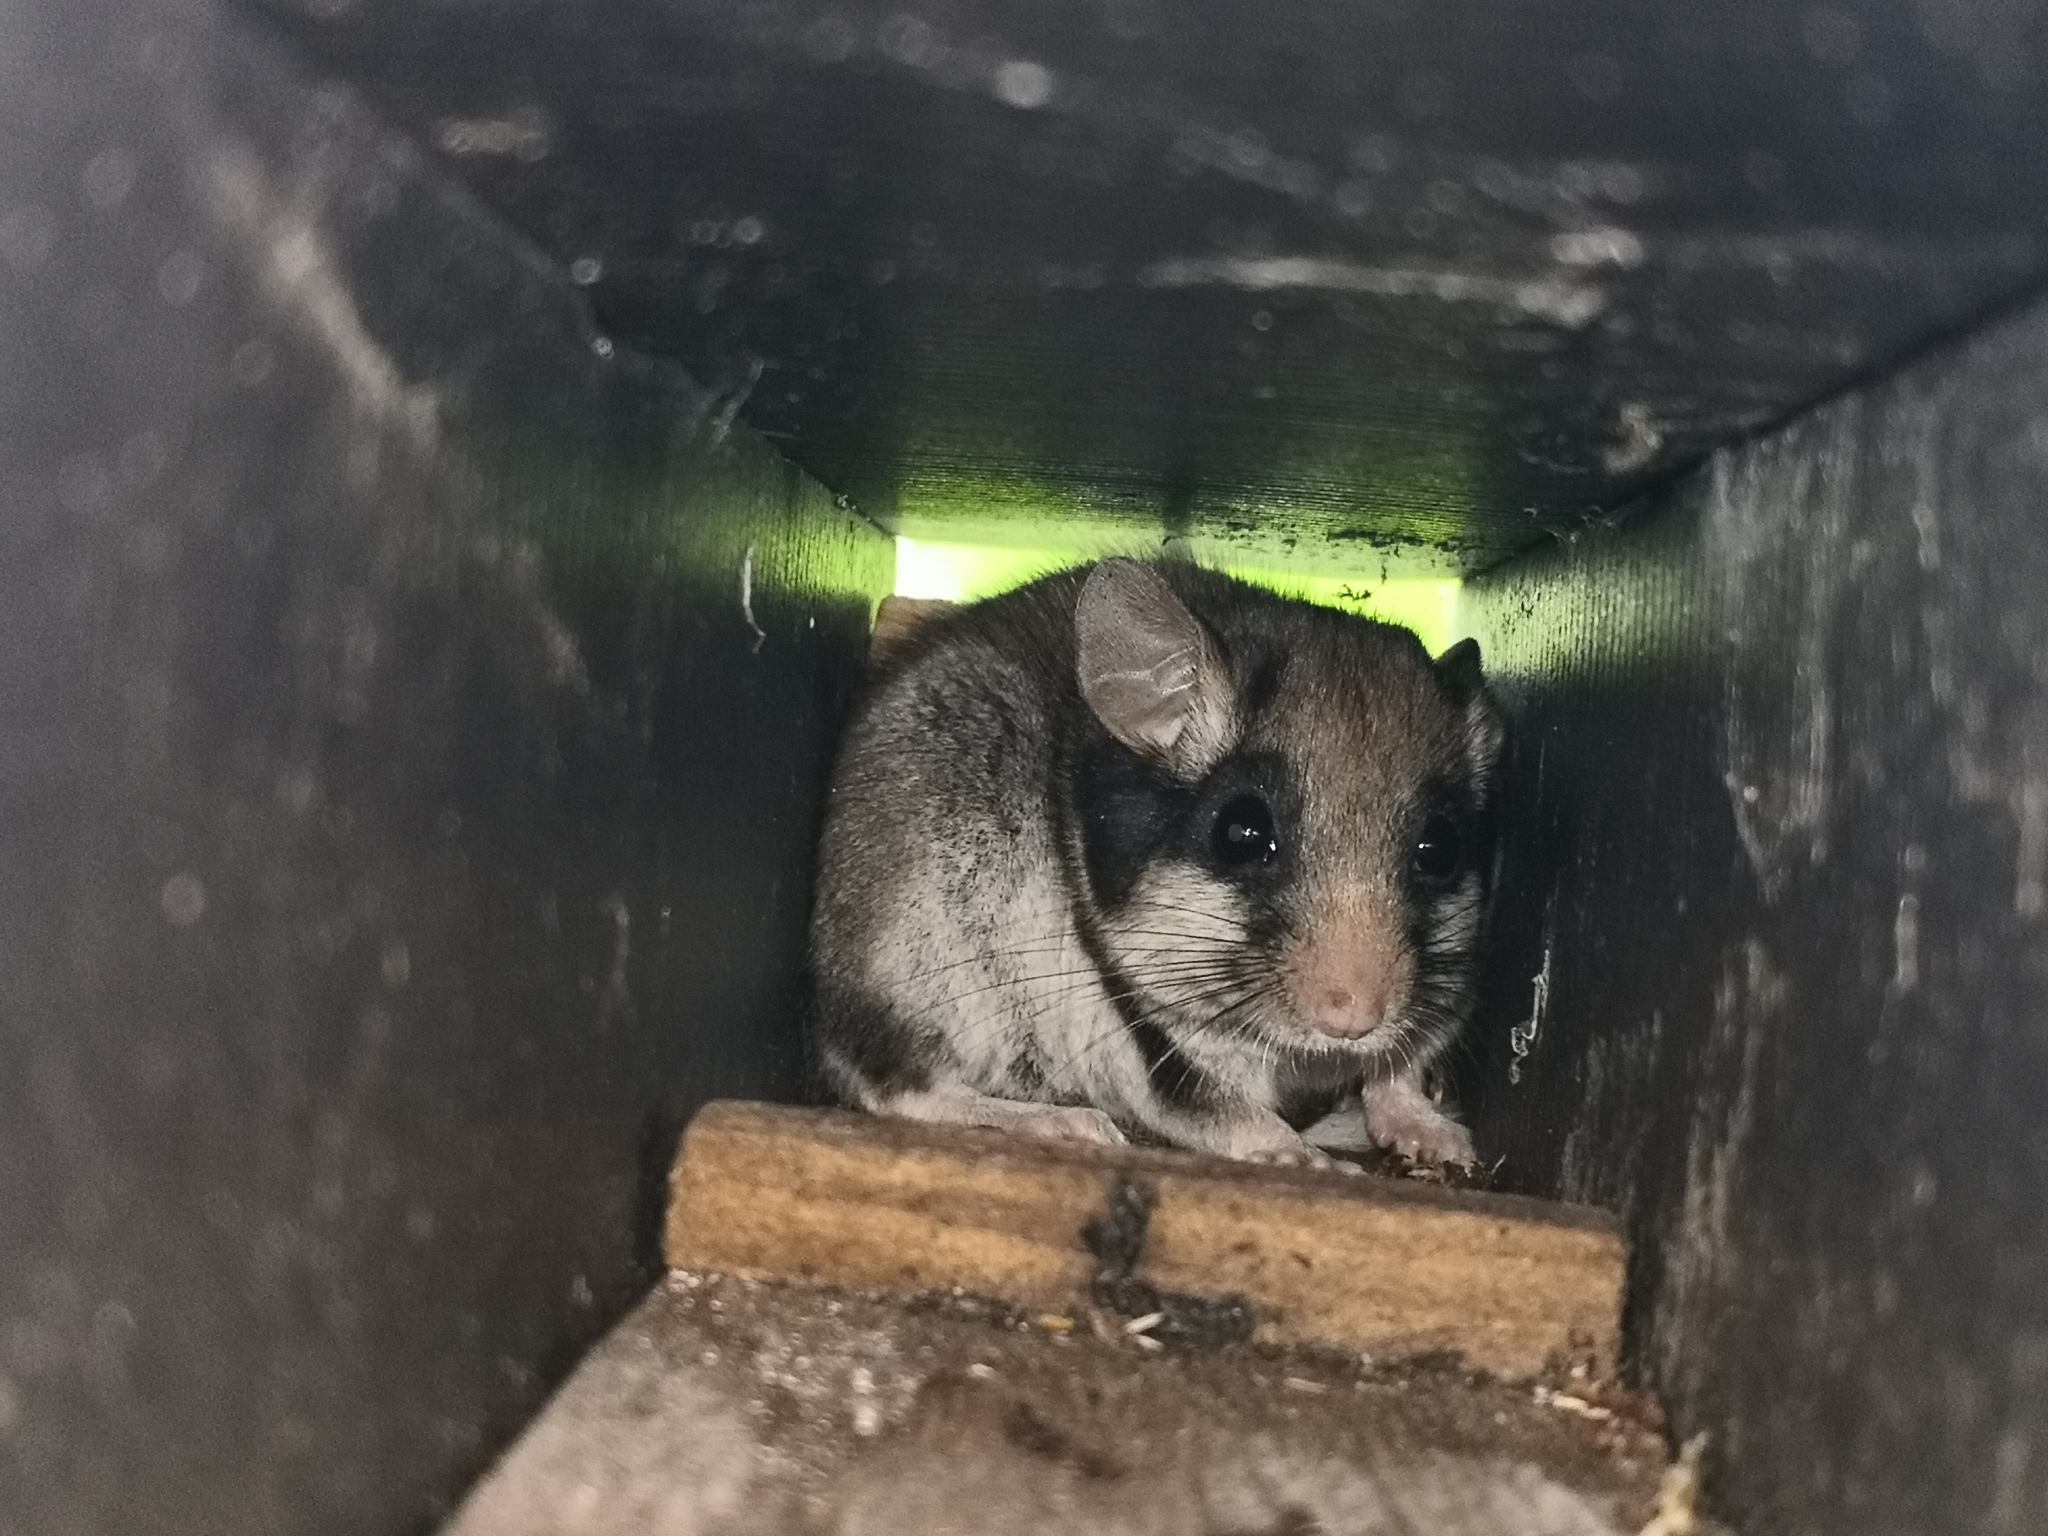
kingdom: Animalia
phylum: Chordata
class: Mammalia
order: Rodentia
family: Gliridae
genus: Eliomys
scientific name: Eliomys quercinus
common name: Garden dormouse
